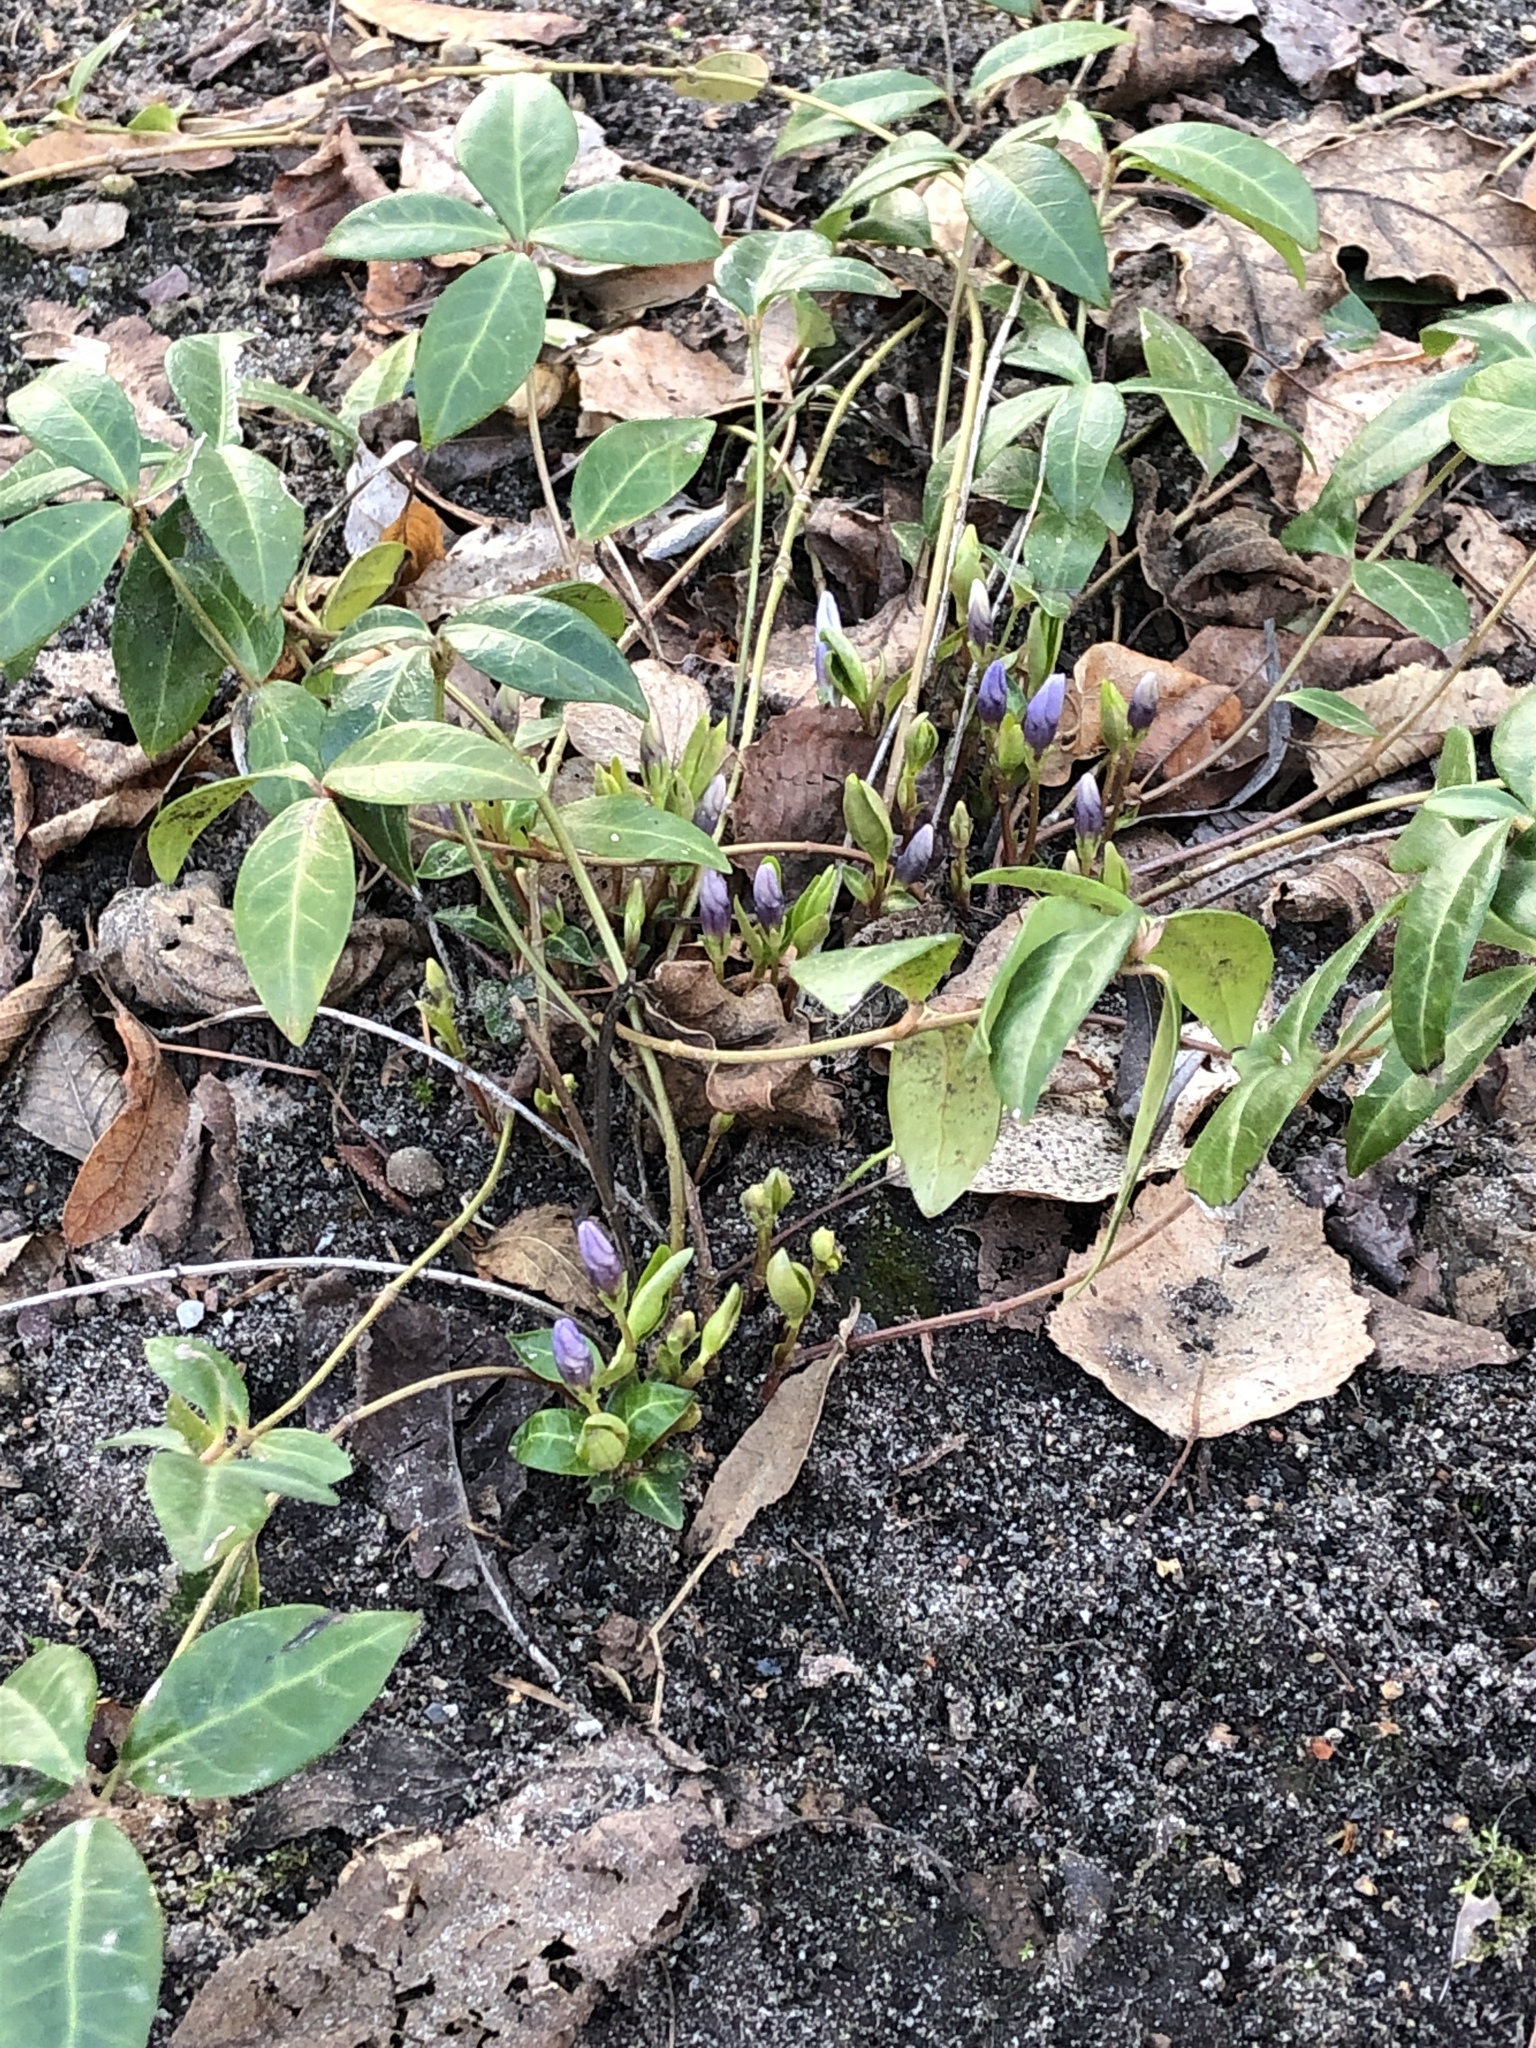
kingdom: Plantae
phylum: Tracheophyta
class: Magnoliopsida
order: Gentianales
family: Apocynaceae
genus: Vinca
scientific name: Vinca minor
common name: Lesser periwinkle
